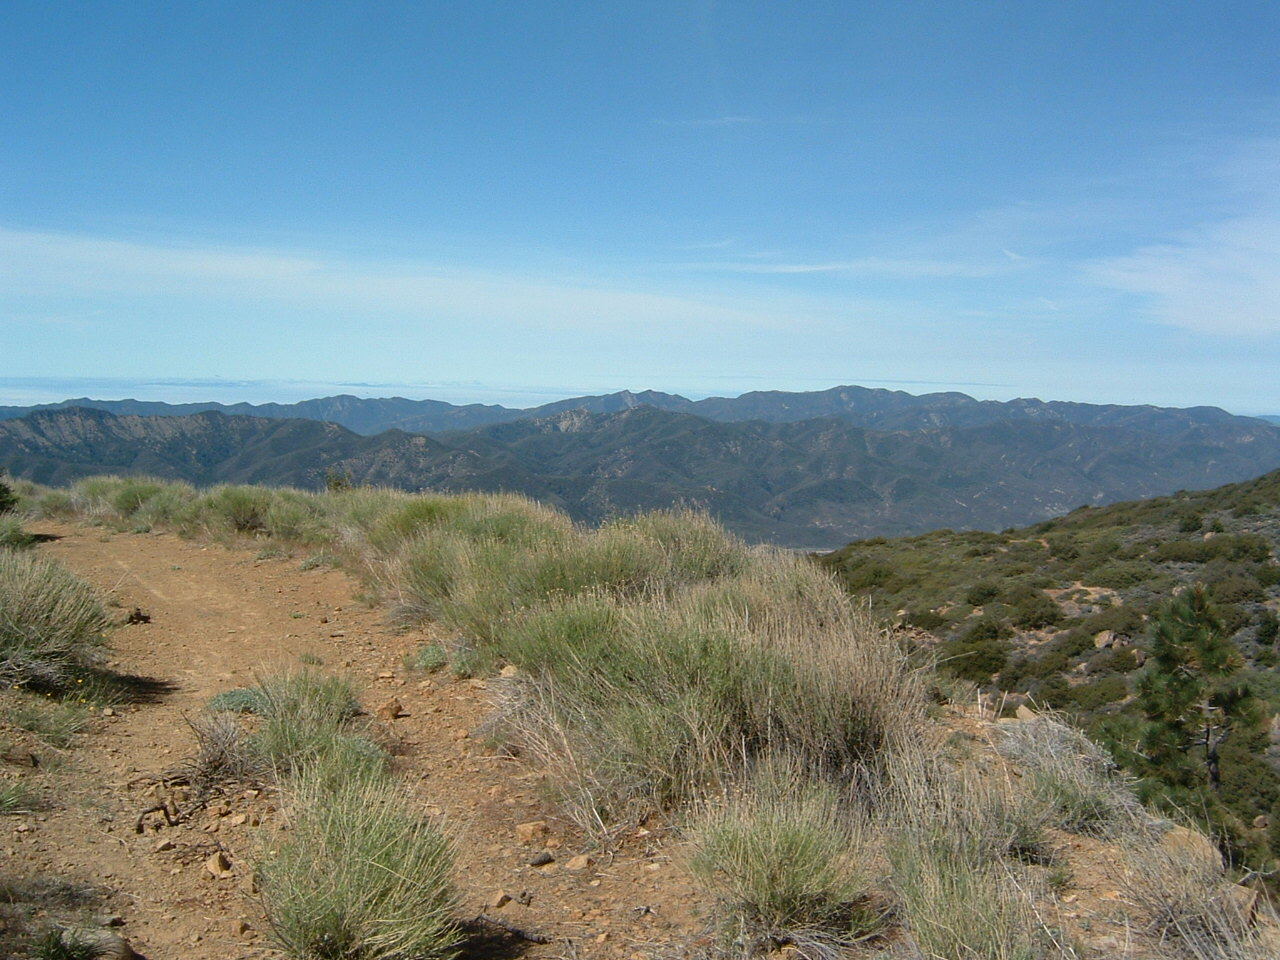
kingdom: Plantae
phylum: Tracheophyta
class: Magnoliopsida
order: Asterales
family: Asteraceae
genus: Ericameria
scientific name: Ericameria nauseosa
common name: Rubber rabbitbrush
